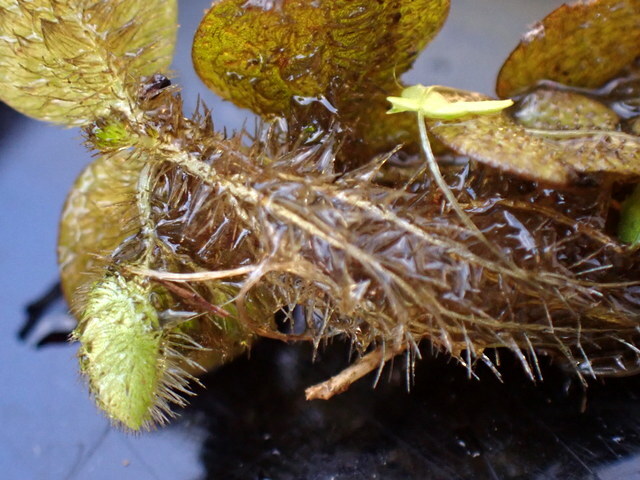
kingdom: Plantae
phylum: Tracheophyta
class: Polypodiopsida
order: Salviniales
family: Salviniaceae
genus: Salvinia
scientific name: Salvinia minima
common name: Water spangles
